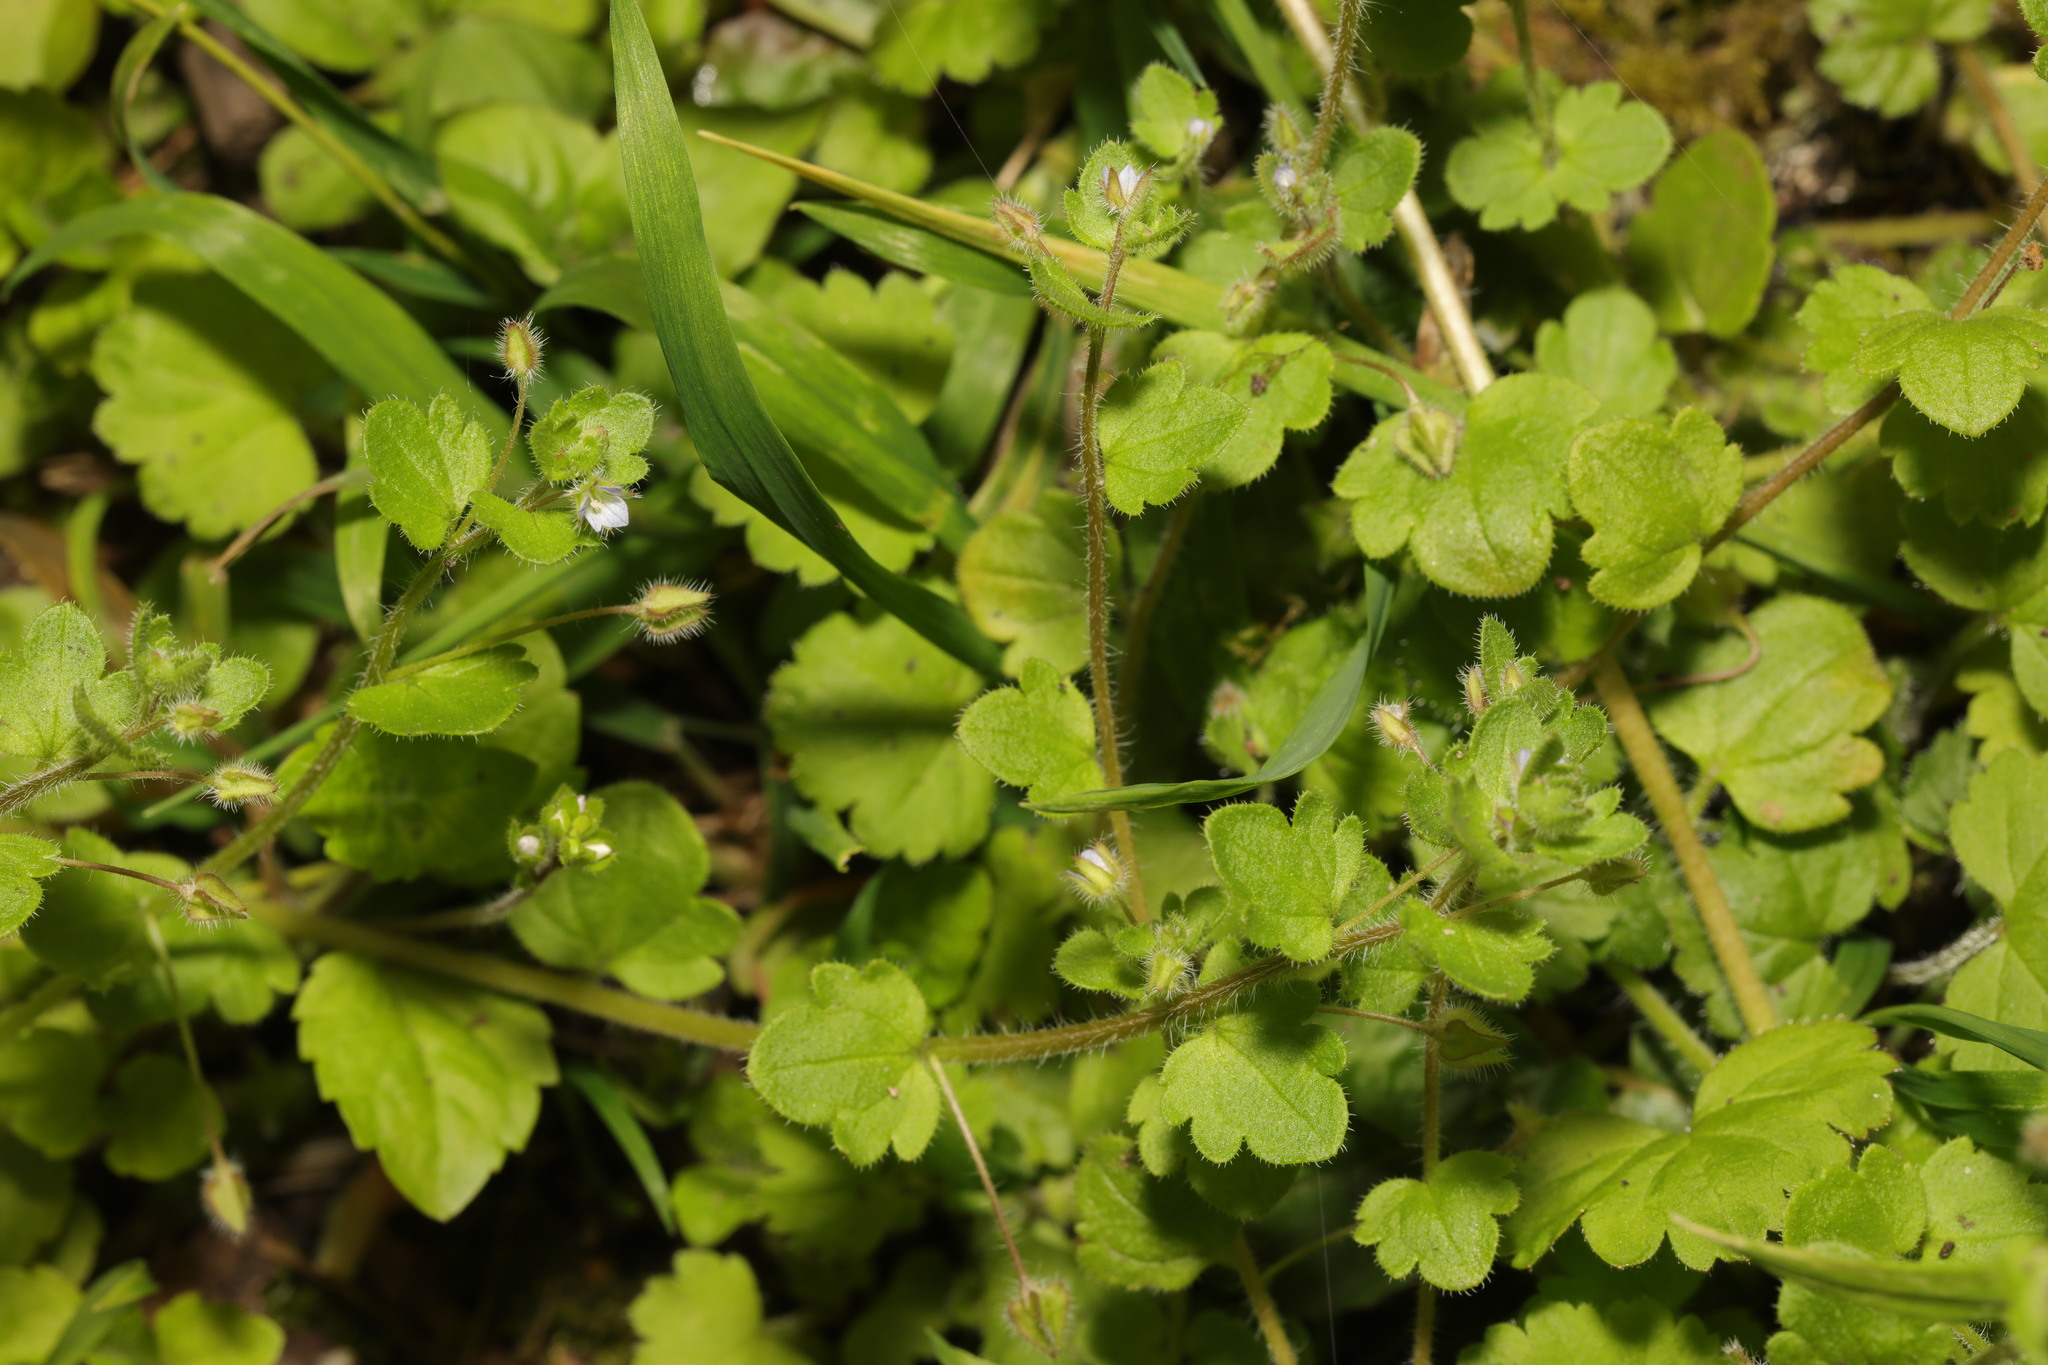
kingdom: Plantae
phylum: Tracheophyta
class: Magnoliopsida
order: Lamiales
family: Plantaginaceae
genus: Veronica
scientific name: Veronica sublobata
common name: False ivy-leaved speedwell
